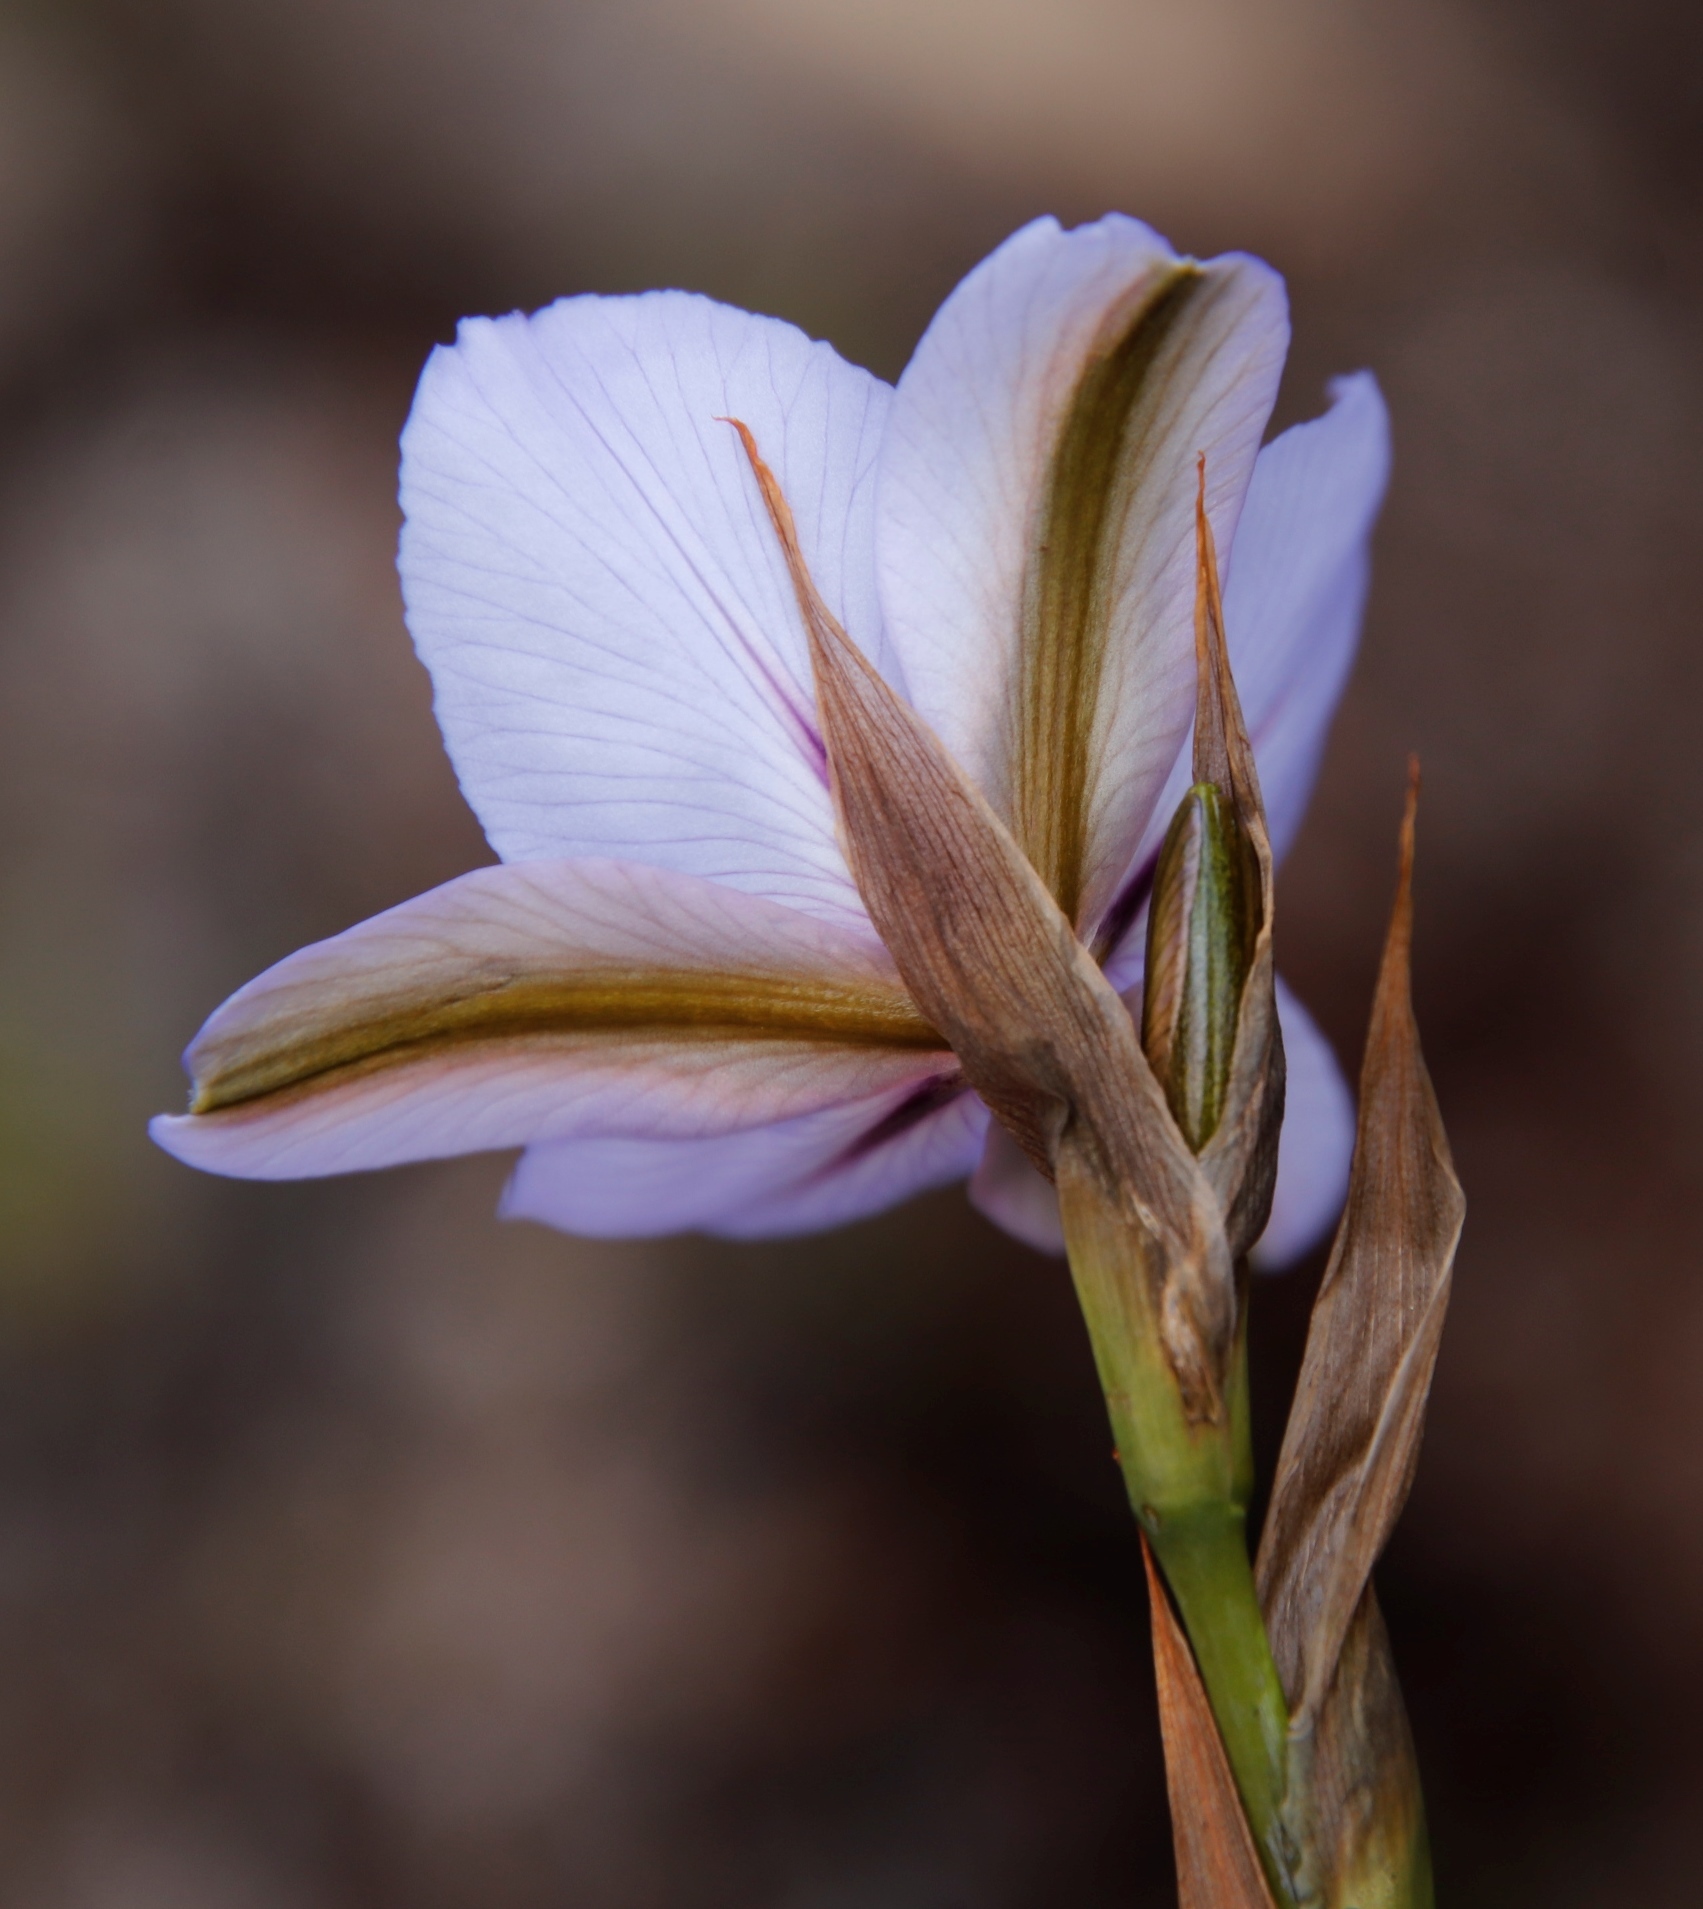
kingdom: Plantae
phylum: Tracheophyta
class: Liliopsida
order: Asparagales
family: Iridaceae
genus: Aristea
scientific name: Aristea spiralis
